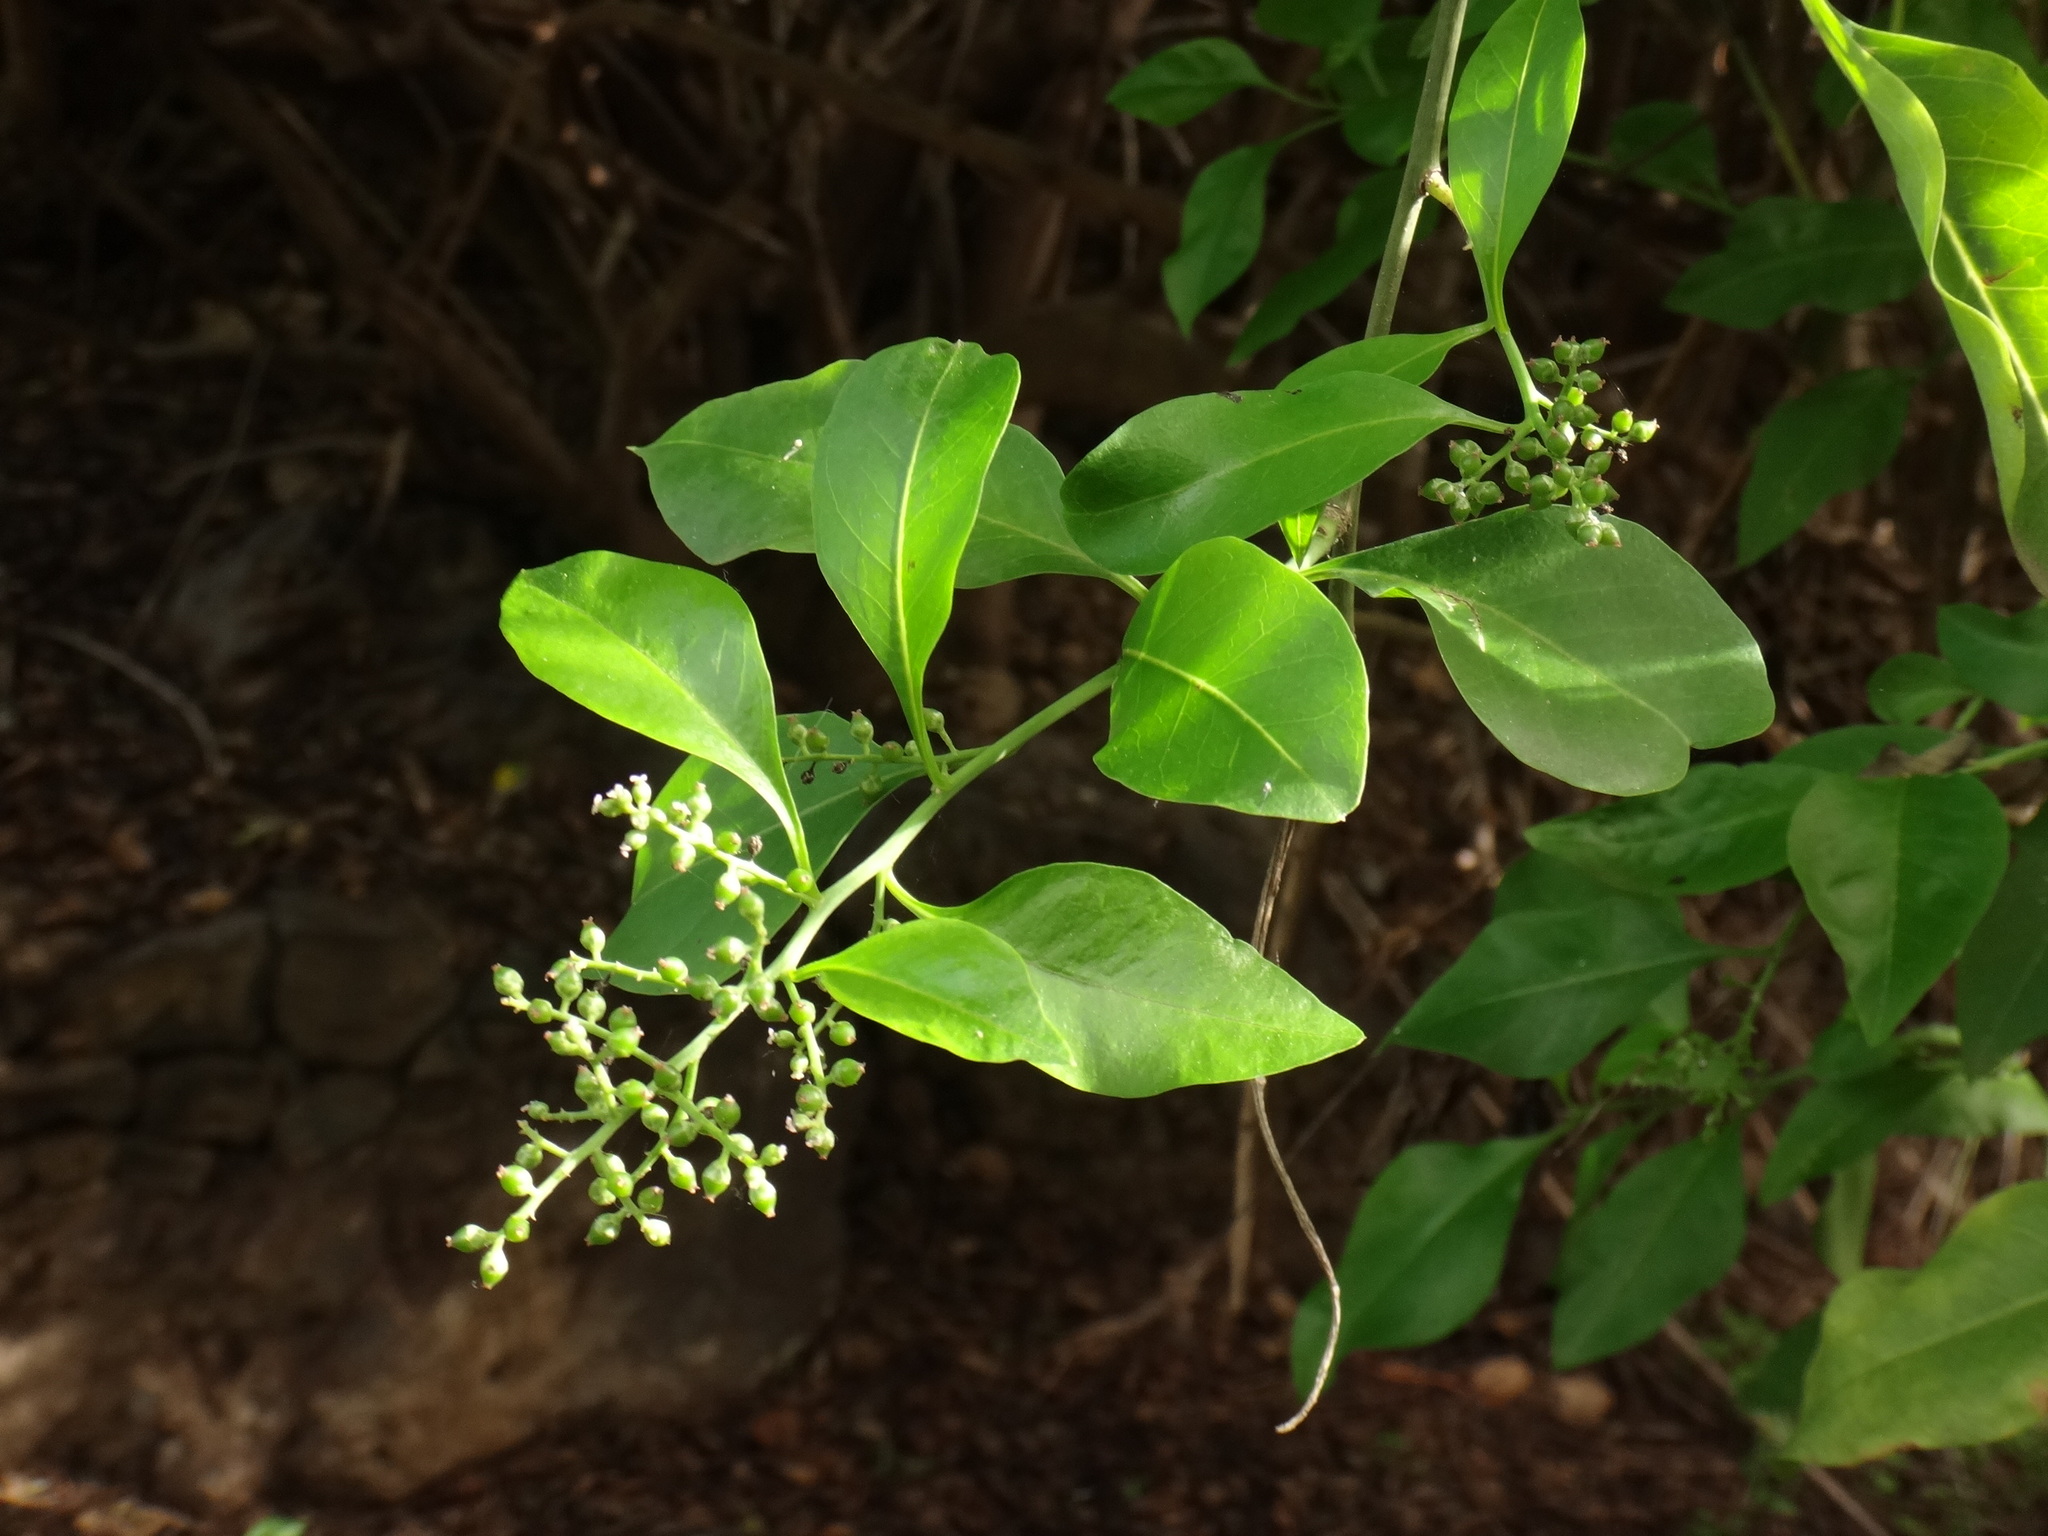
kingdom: Plantae
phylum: Tracheophyta
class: Magnoliopsida
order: Caryophyllales
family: Amaranthaceae
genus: Bosea
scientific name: Bosea yervamora
